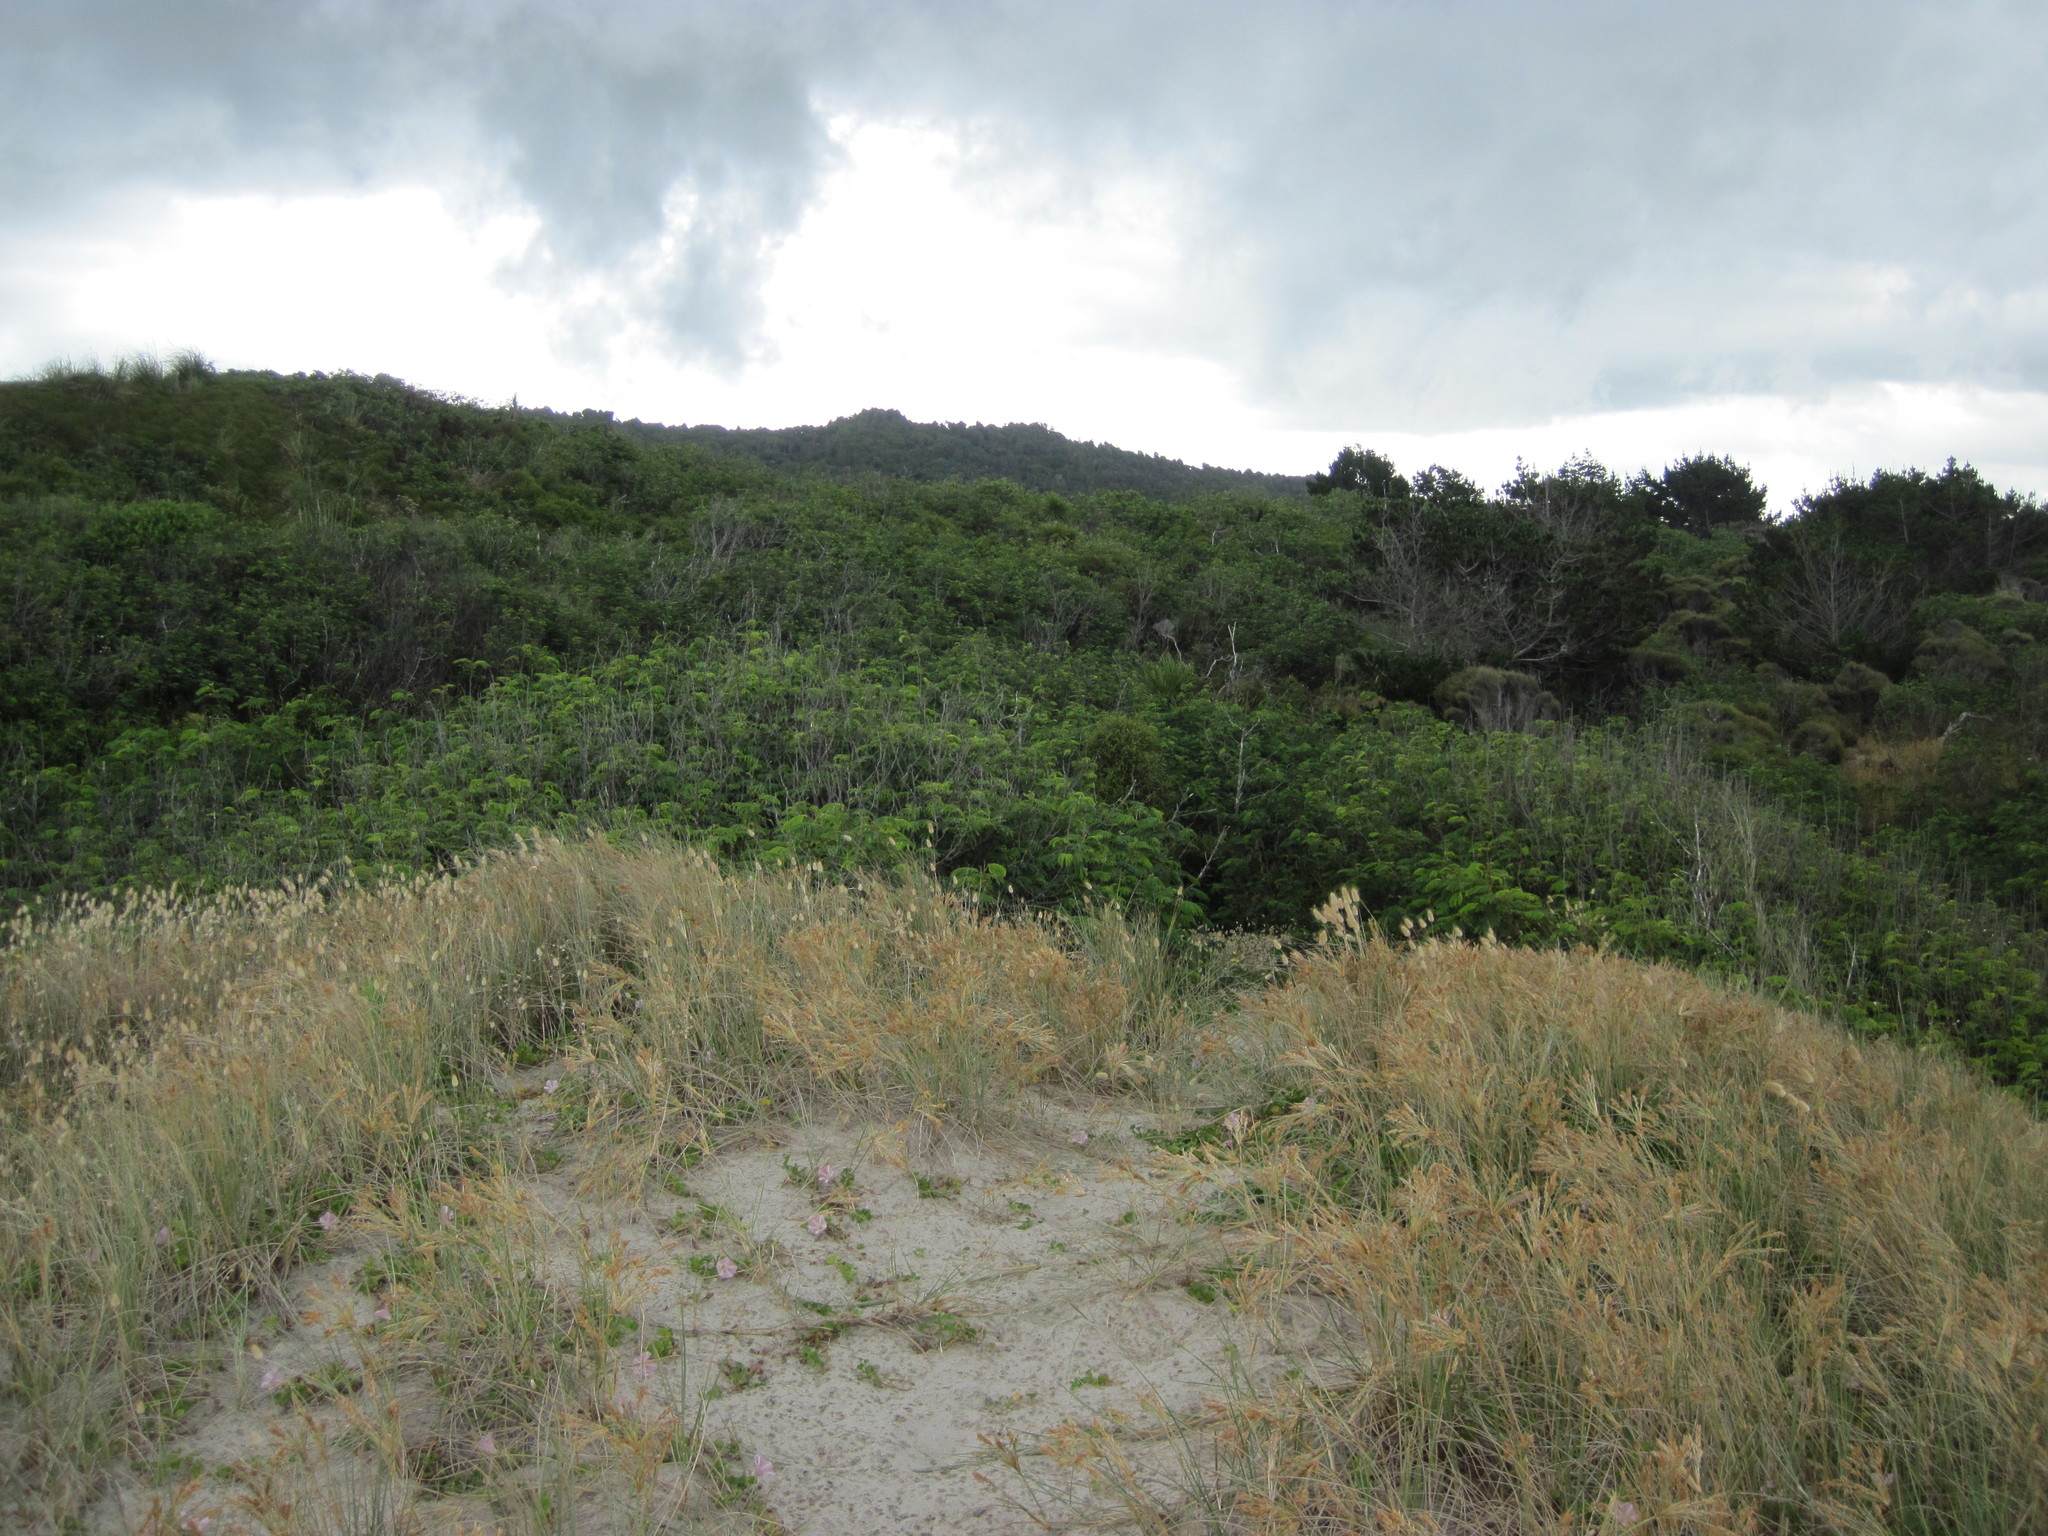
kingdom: Plantae
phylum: Tracheophyta
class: Liliopsida
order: Poales
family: Poaceae
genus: Spinifex
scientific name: Spinifex sericeus
